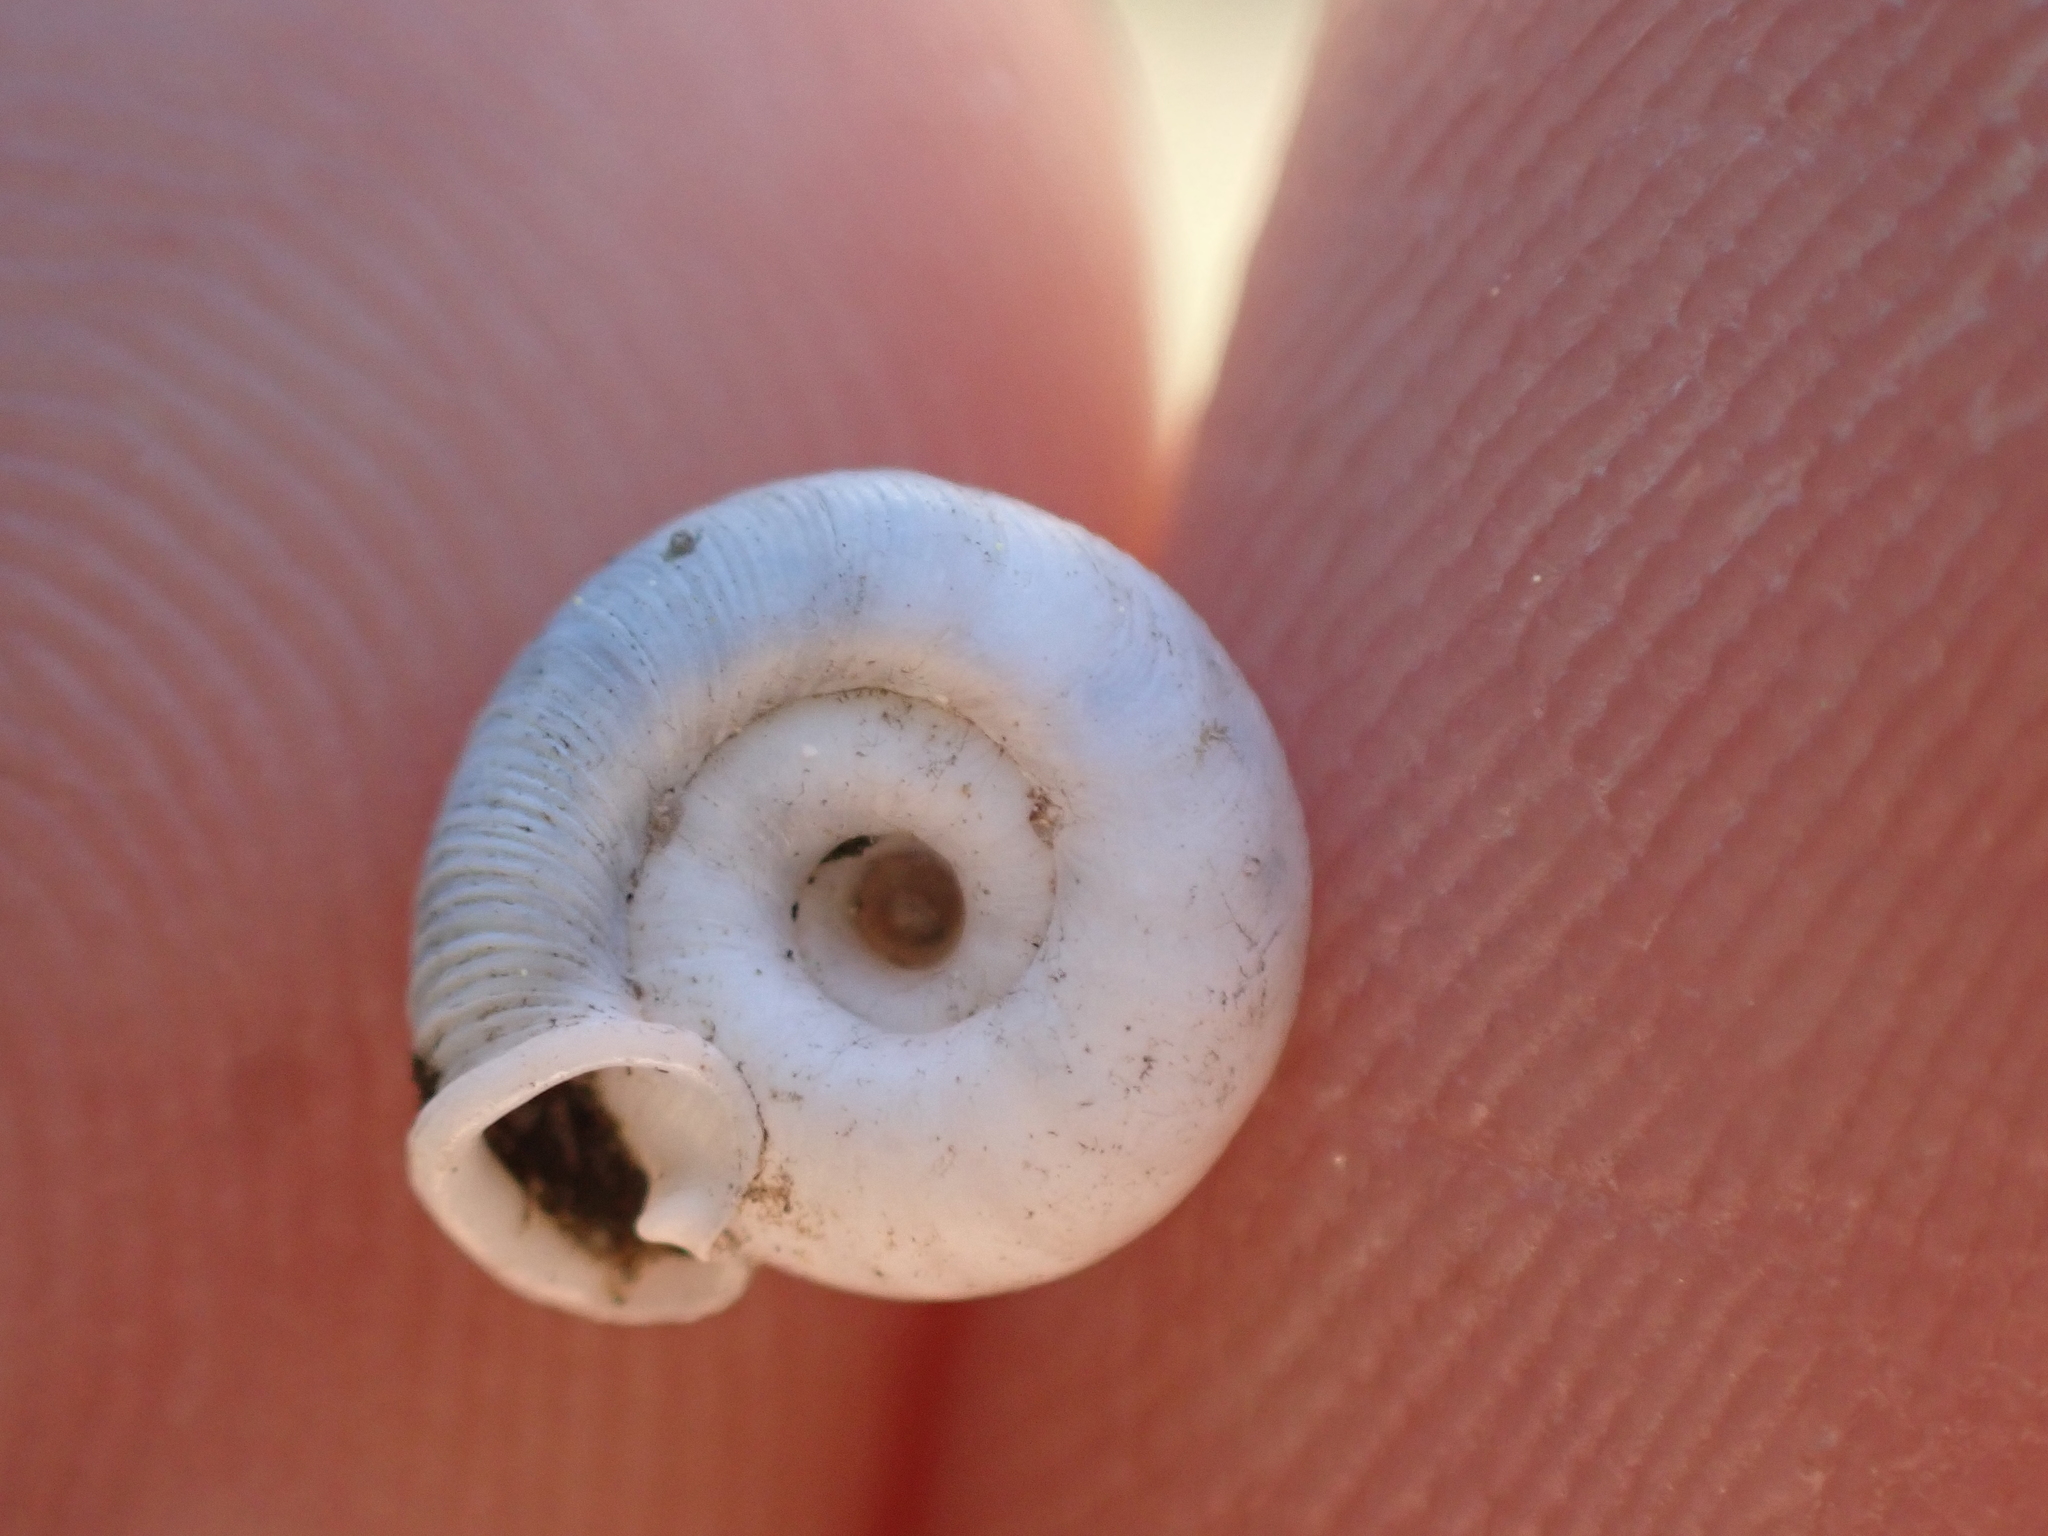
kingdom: Animalia
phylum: Mollusca
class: Gastropoda
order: Stylommatophora
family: Polygyridae
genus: Polygyra
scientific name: Polygyra cereolus
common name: Southern flatcone snail
